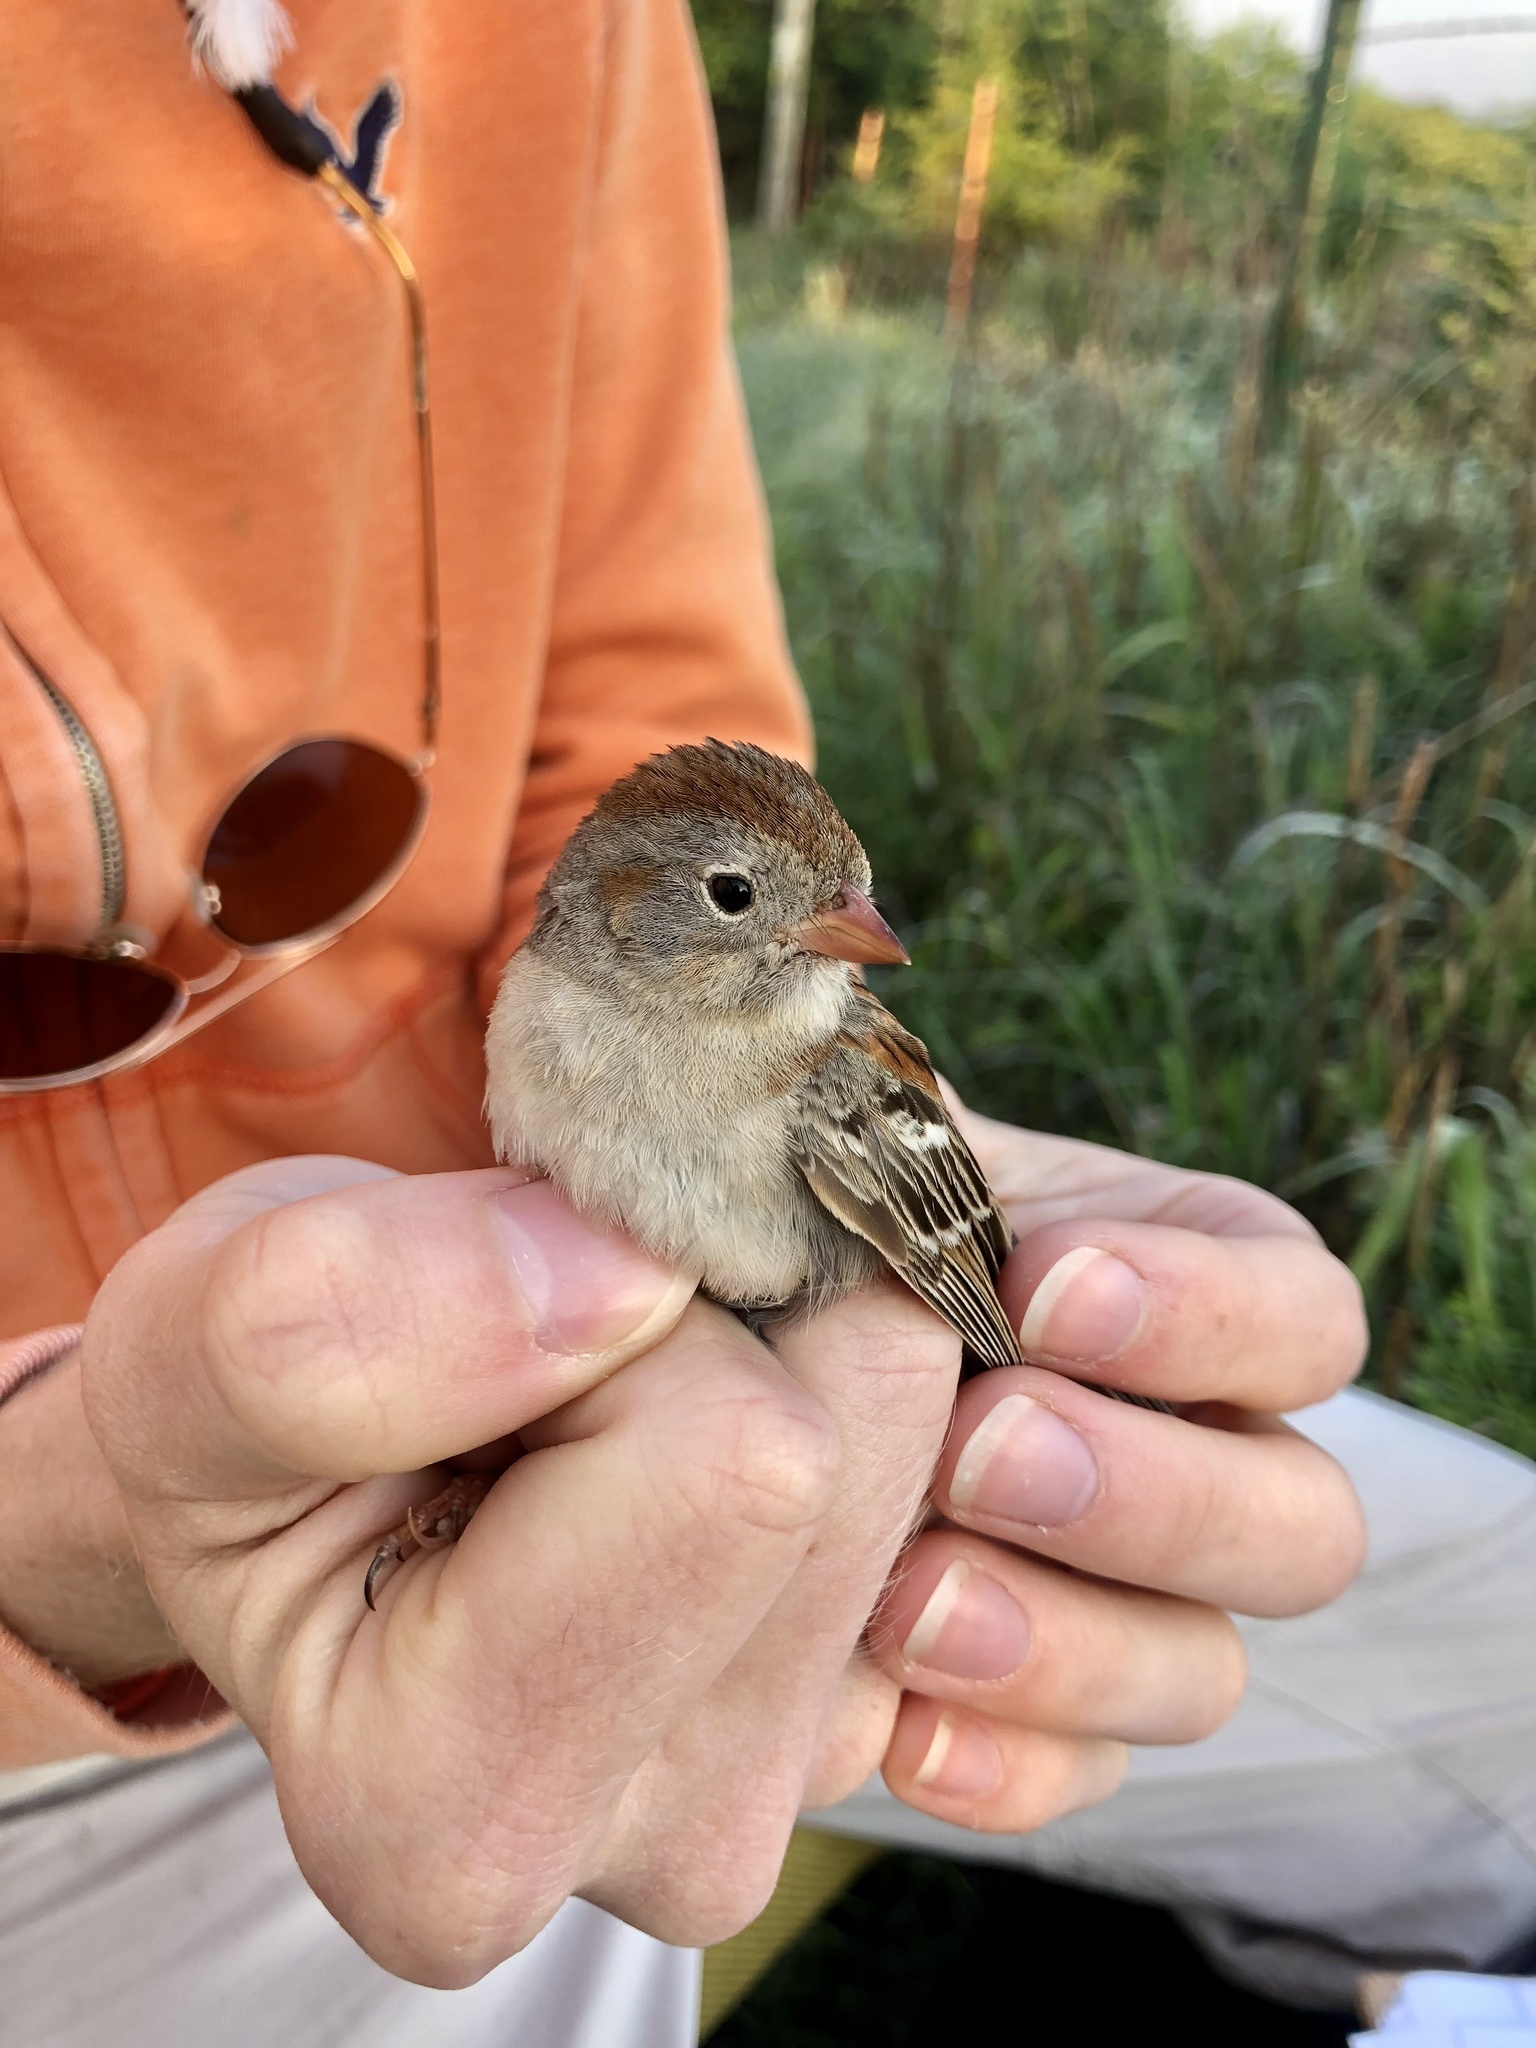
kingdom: Animalia
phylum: Chordata
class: Aves
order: Passeriformes
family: Passerellidae
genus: Spizella
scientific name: Spizella pusilla
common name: Field sparrow
